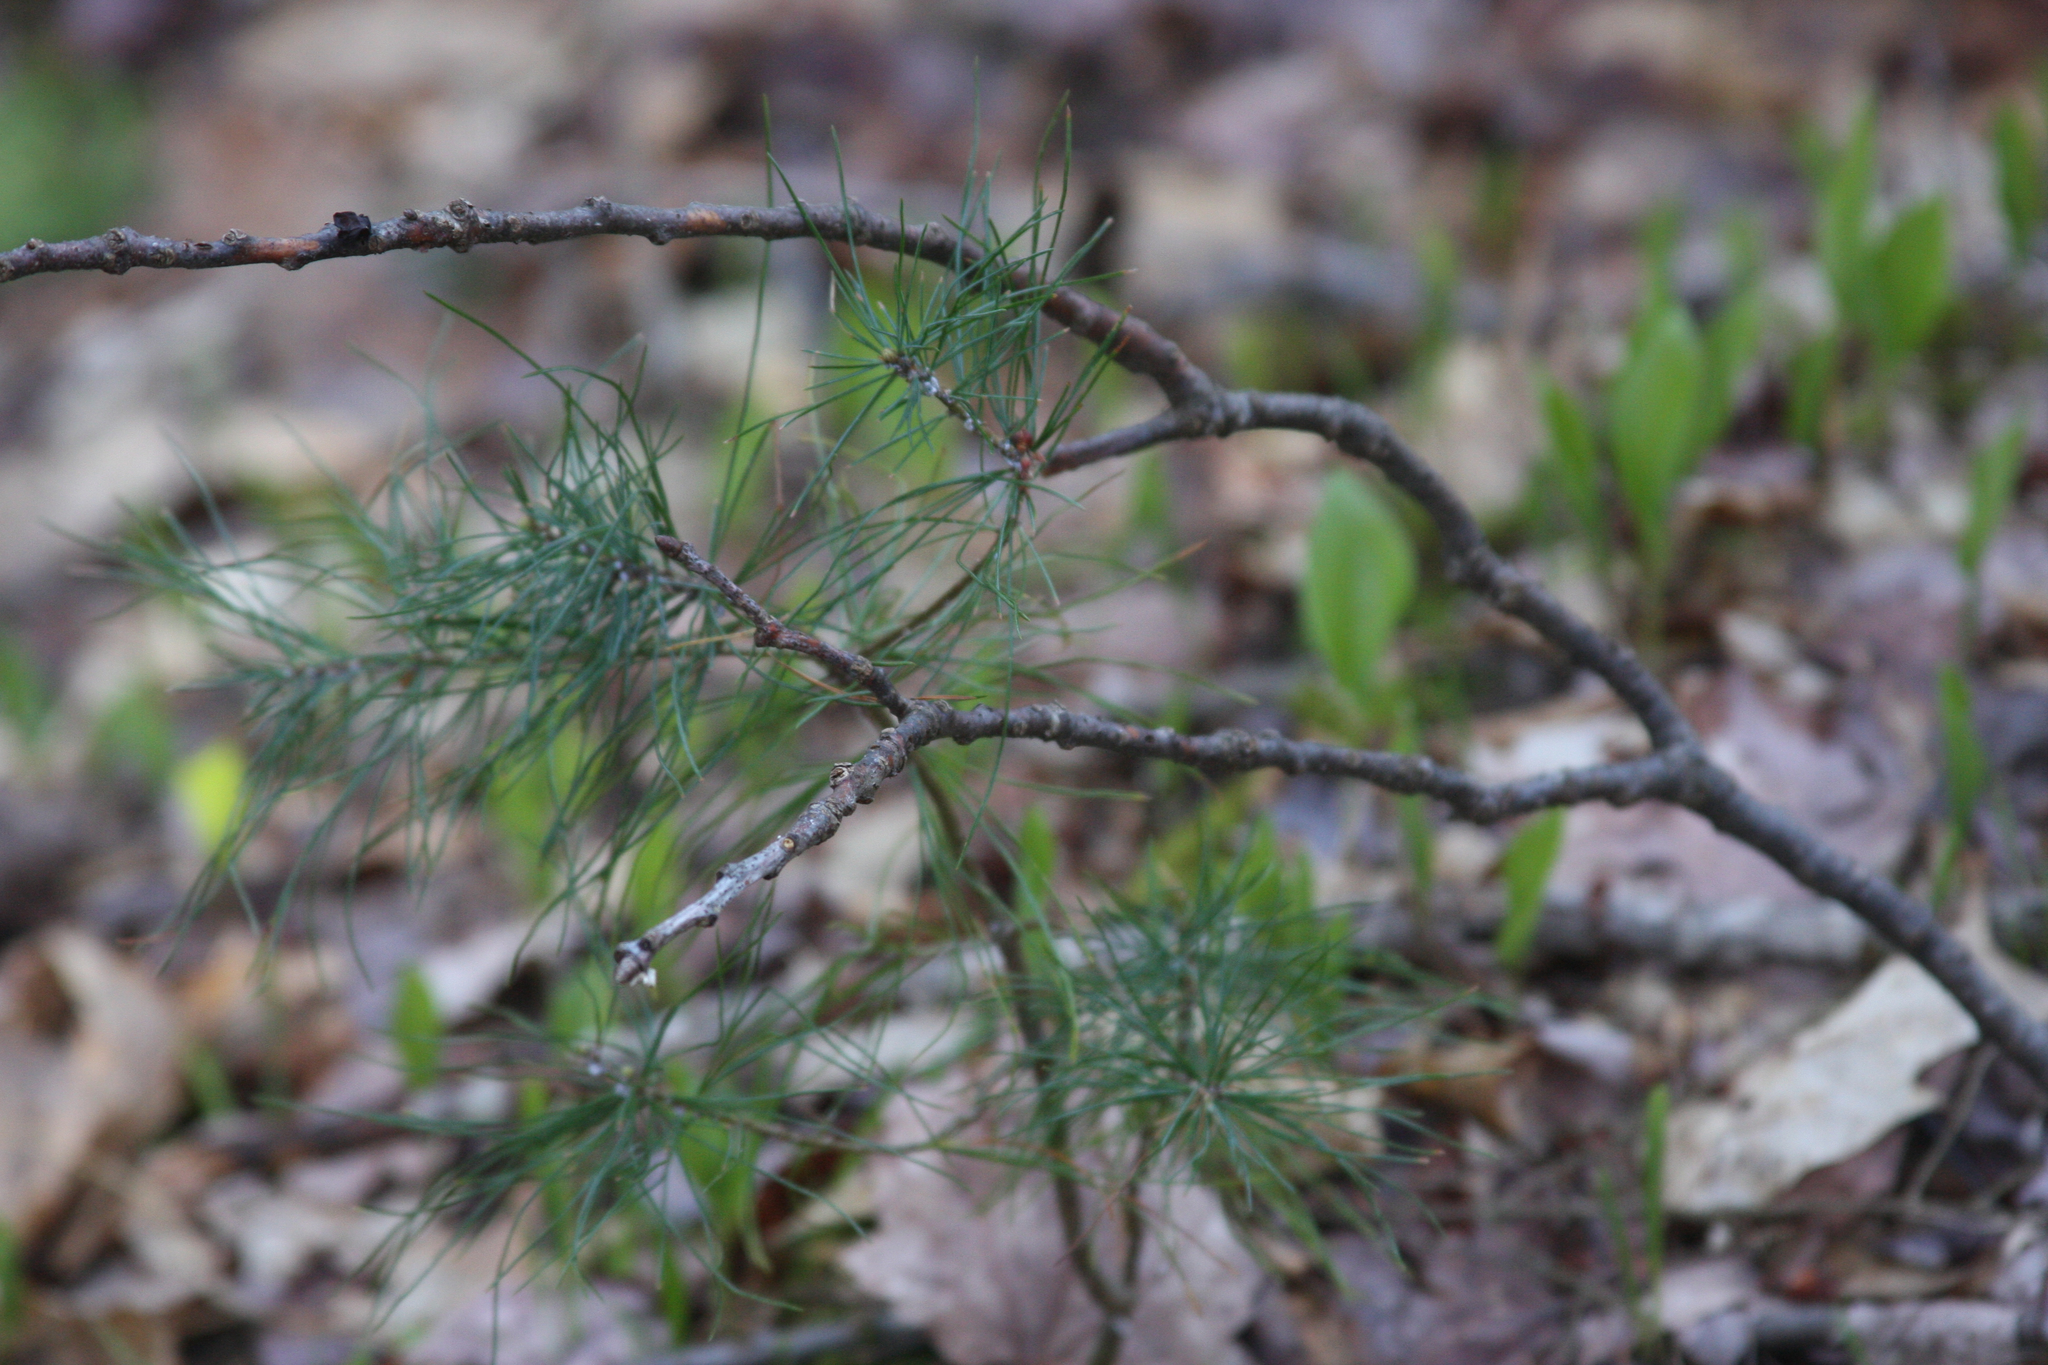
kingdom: Plantae
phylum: Tracheophyta
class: Pinopsida
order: Pinales
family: Pinaceae
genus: Pinus
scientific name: Pinus strobus
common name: Weymouth pine
